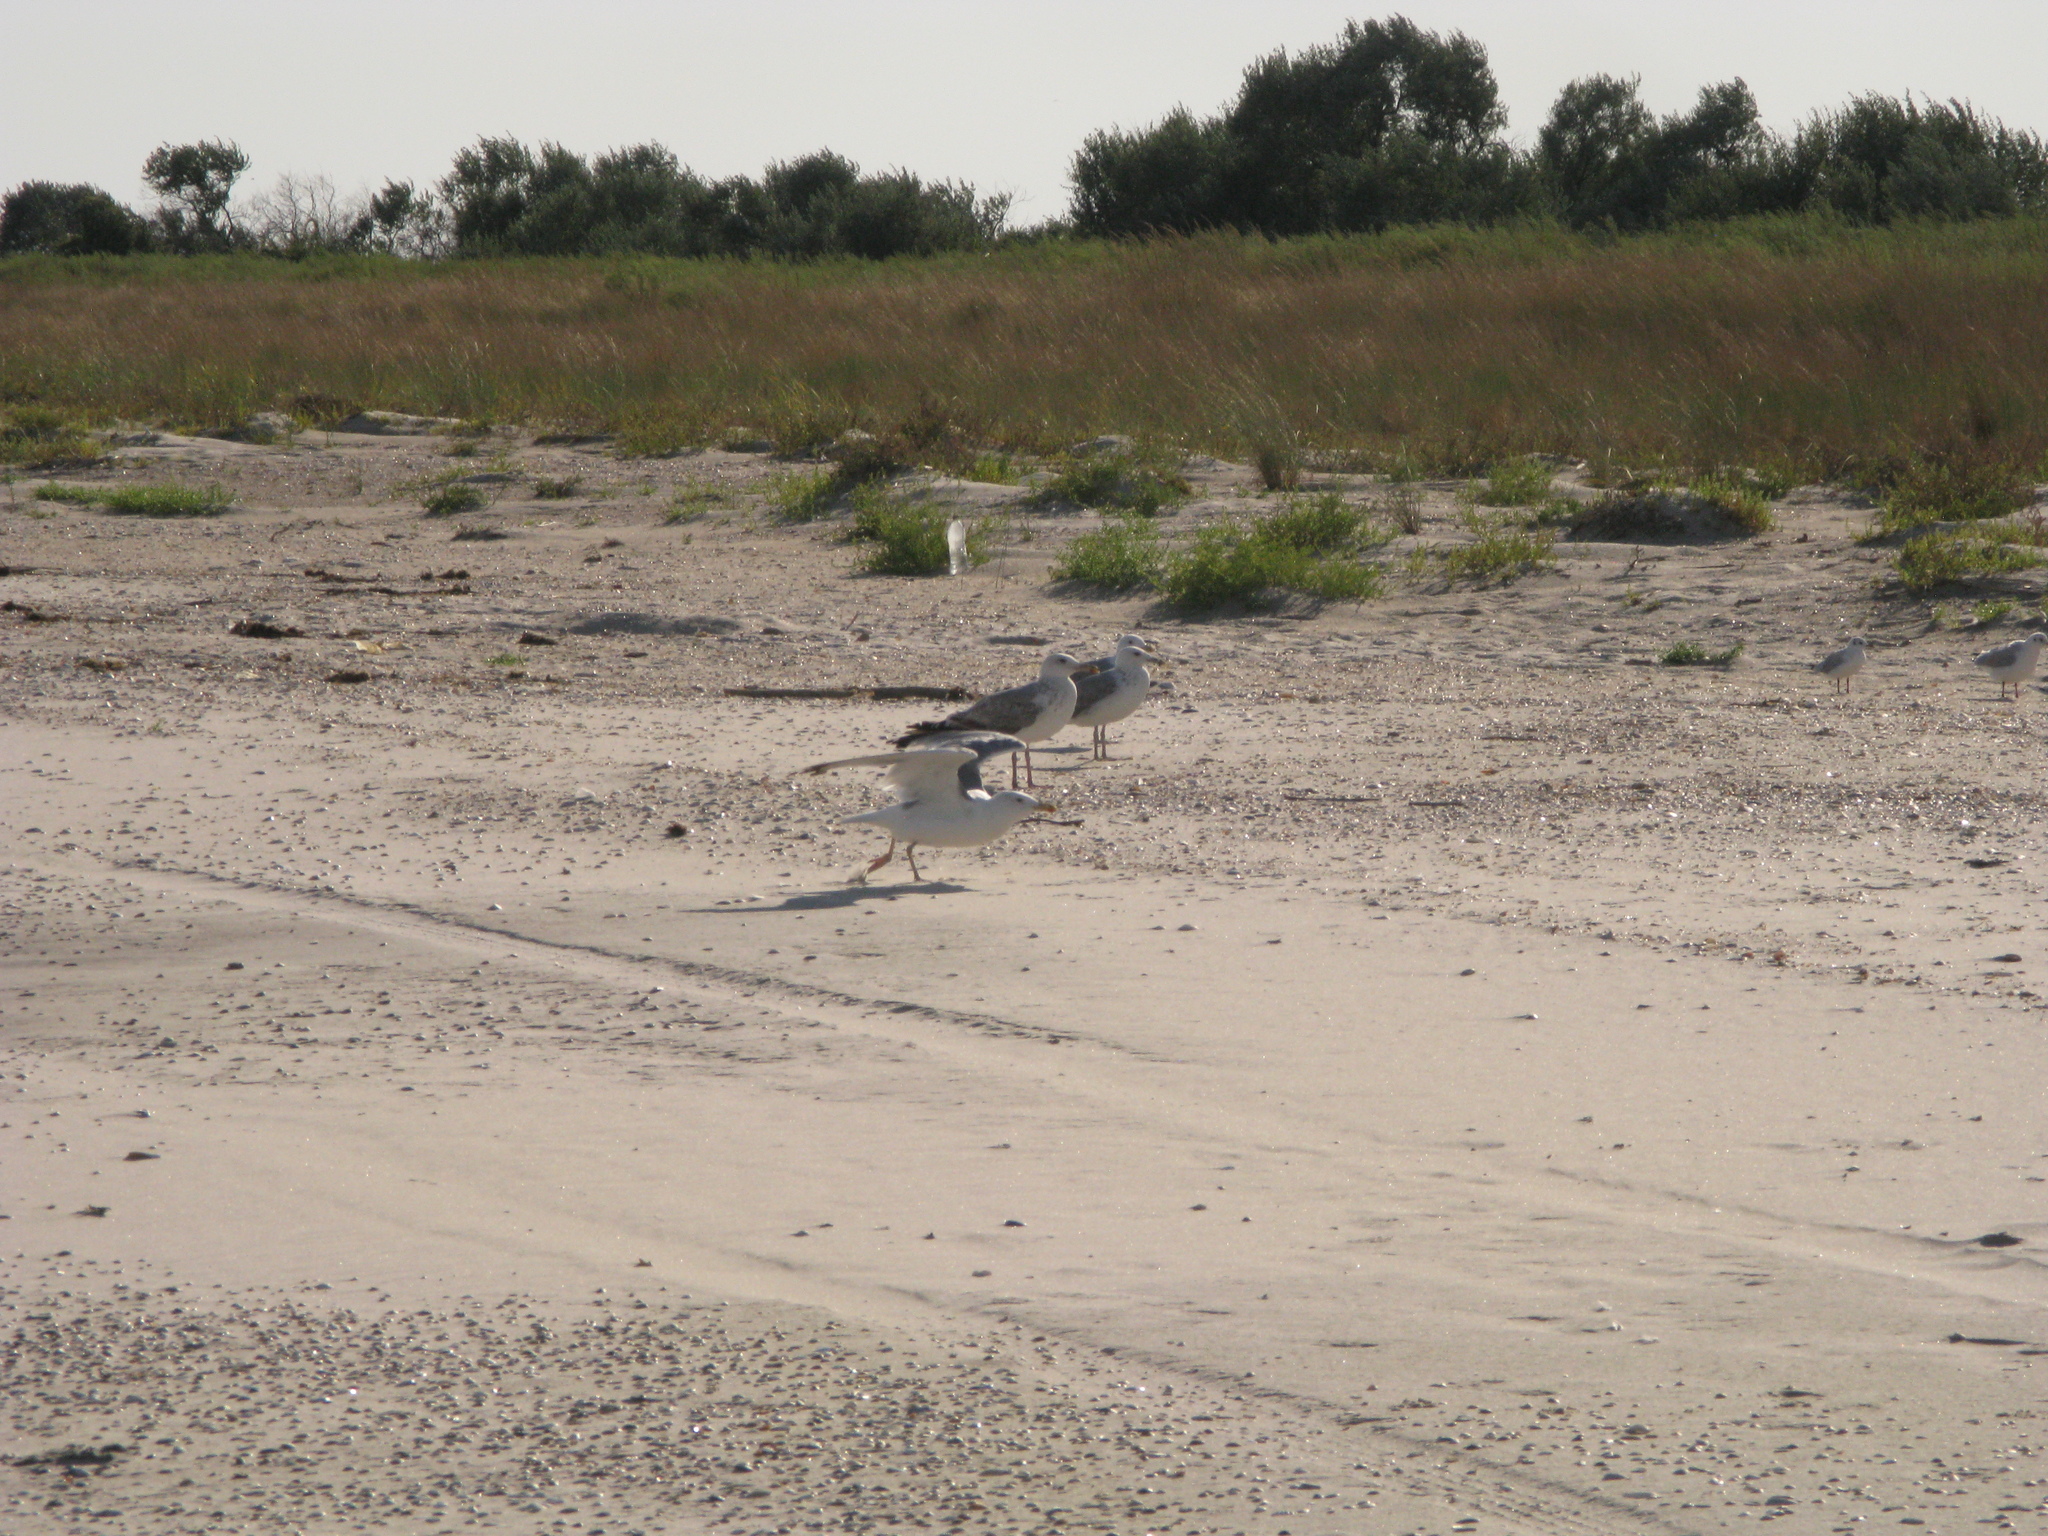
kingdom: Animalia
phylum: Chordata
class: Aves
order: Charadriiformes
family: Laridae
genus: Larus
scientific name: Larus cachinnans
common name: Caspian gull
